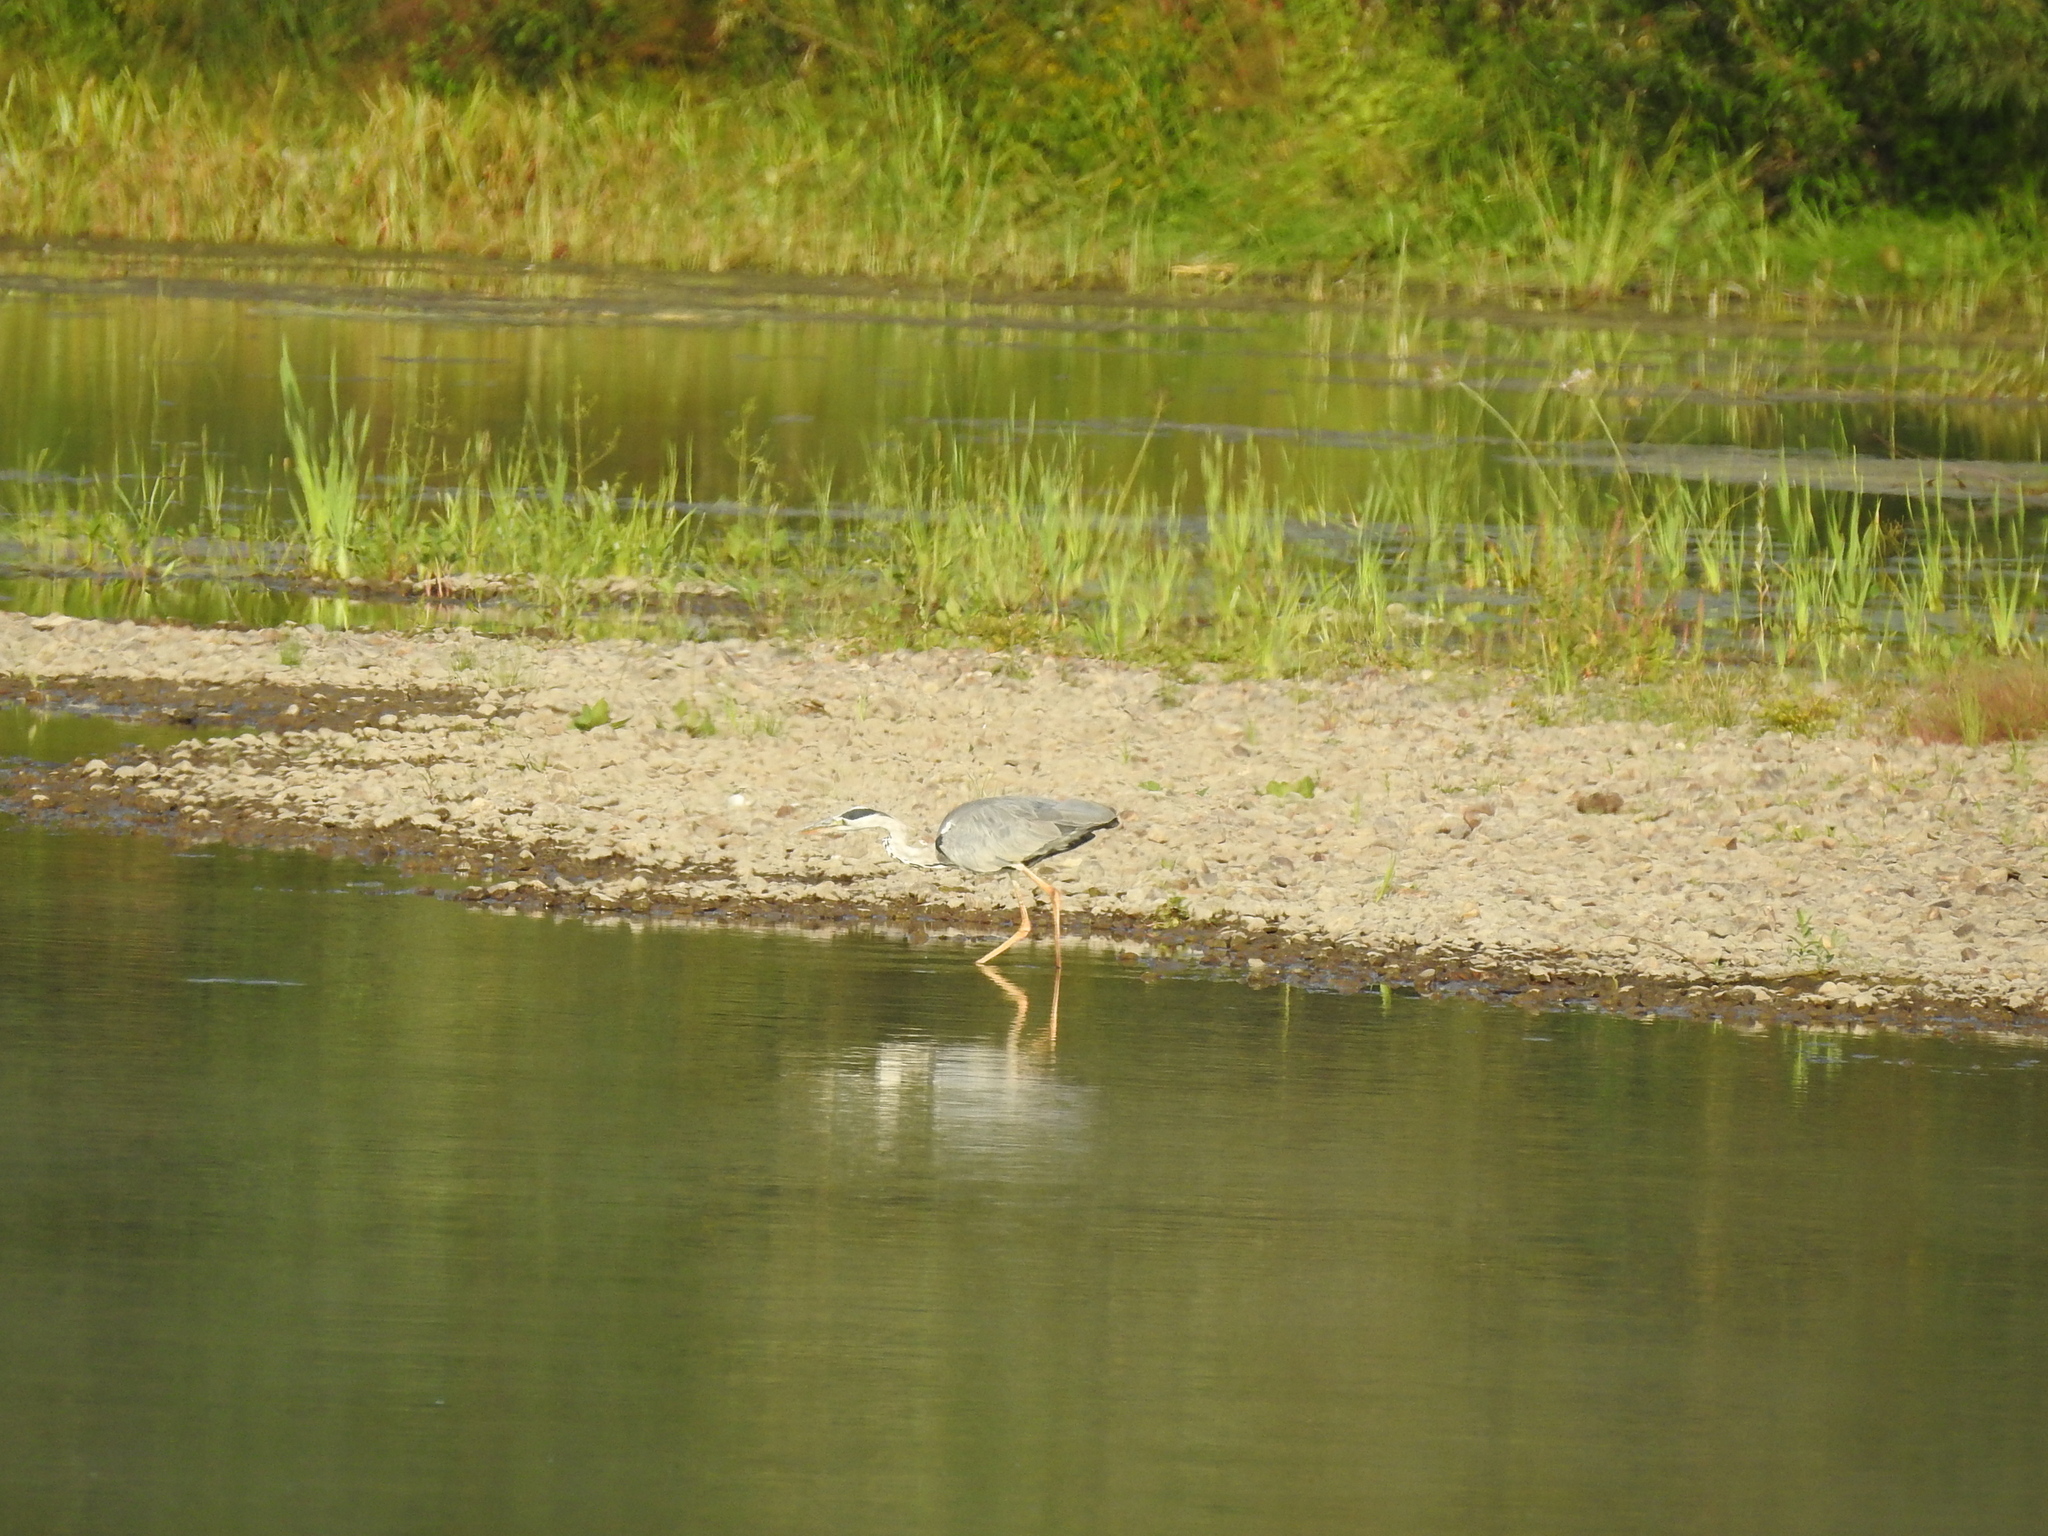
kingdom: Animalia
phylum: Chordata
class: Aves
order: Pelecaniformes
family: Ardeidae
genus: Ardea
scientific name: Ardea cinerea
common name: Grey heron
